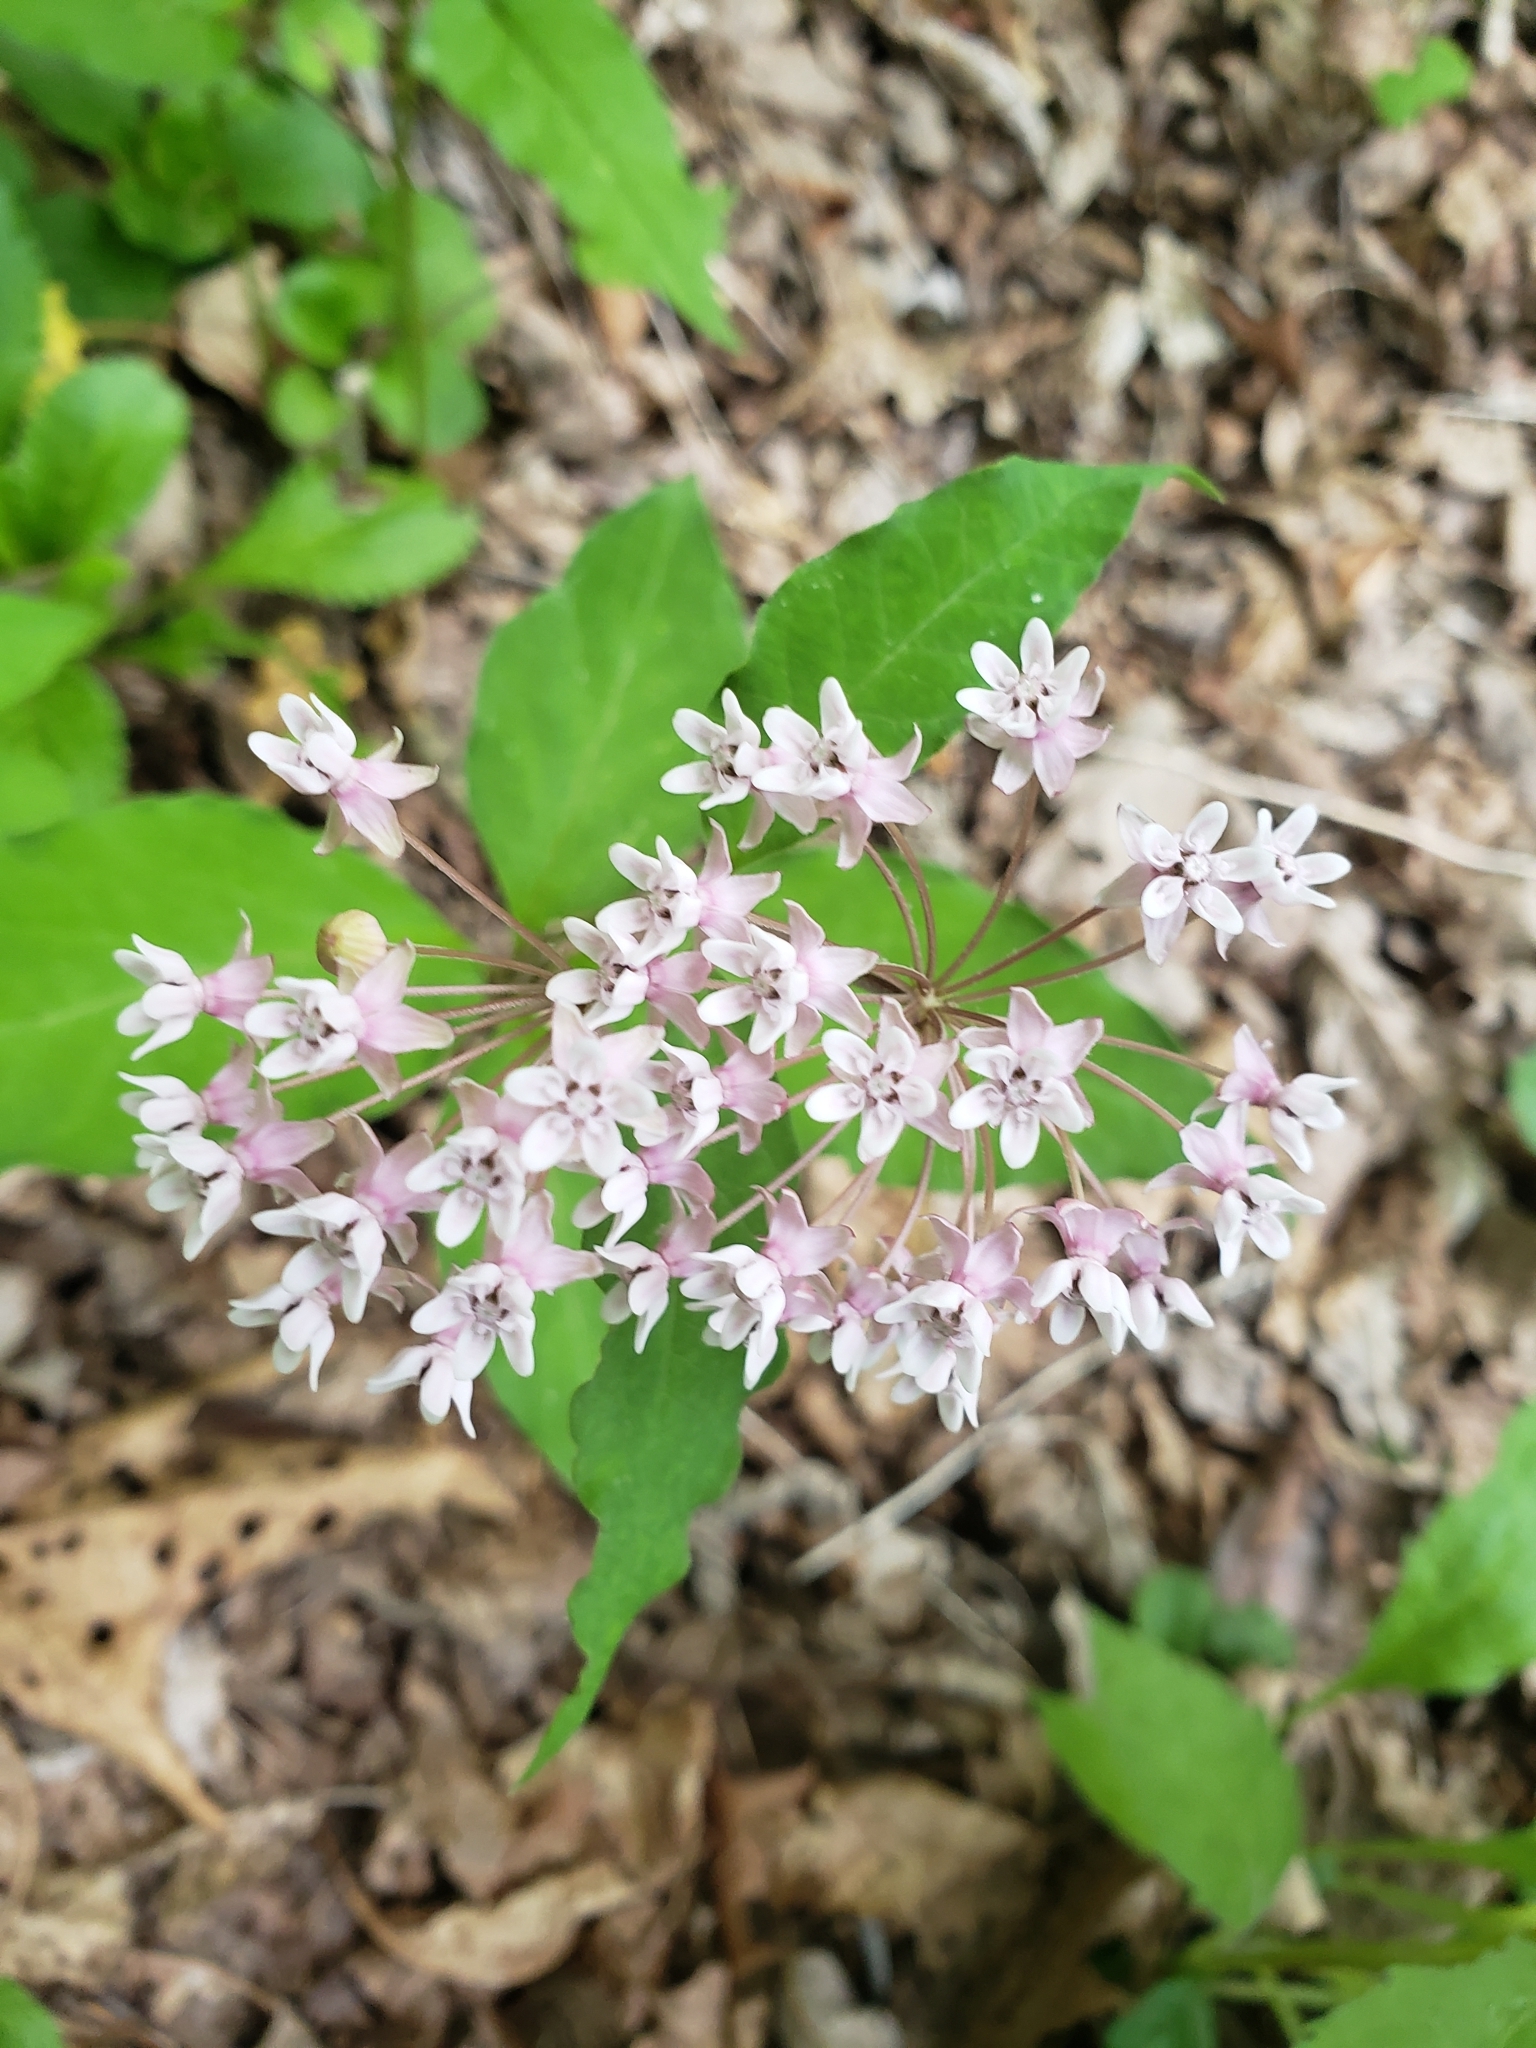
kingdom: Plantae
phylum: Tracheophyta
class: Magnoliopsida
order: Gentianales
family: Apocynaceae
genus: Asclepias
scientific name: Asclepias quadrifolia
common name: Whorled milkweed
